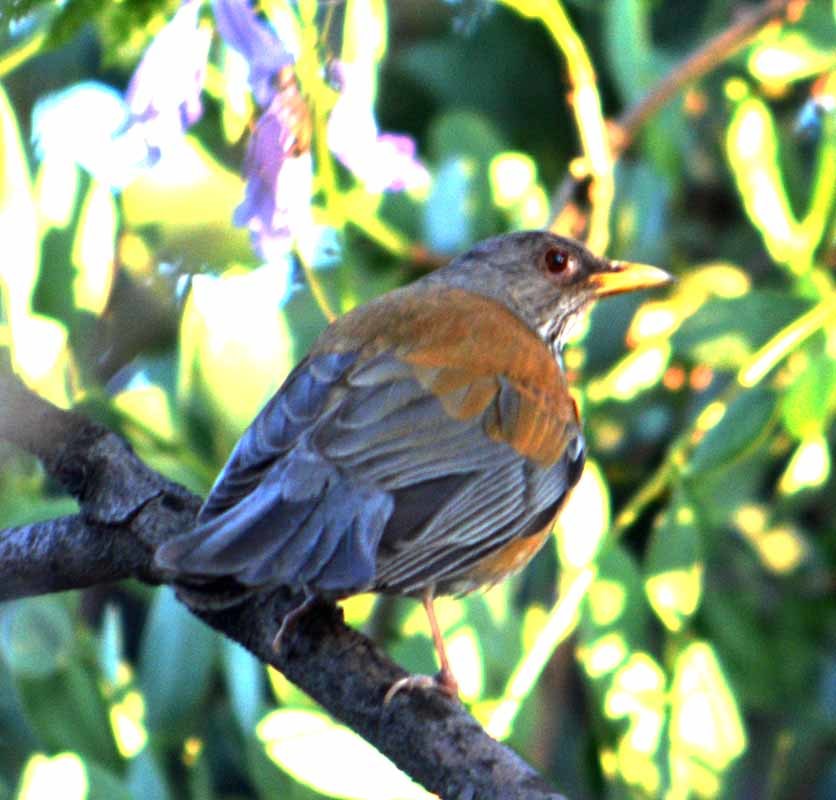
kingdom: Animalia
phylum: Chordata
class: Aves
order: Passeriformes
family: Turdidae
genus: Turdus
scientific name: Turdus rufopalliatus
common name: Rufous-backed robin
